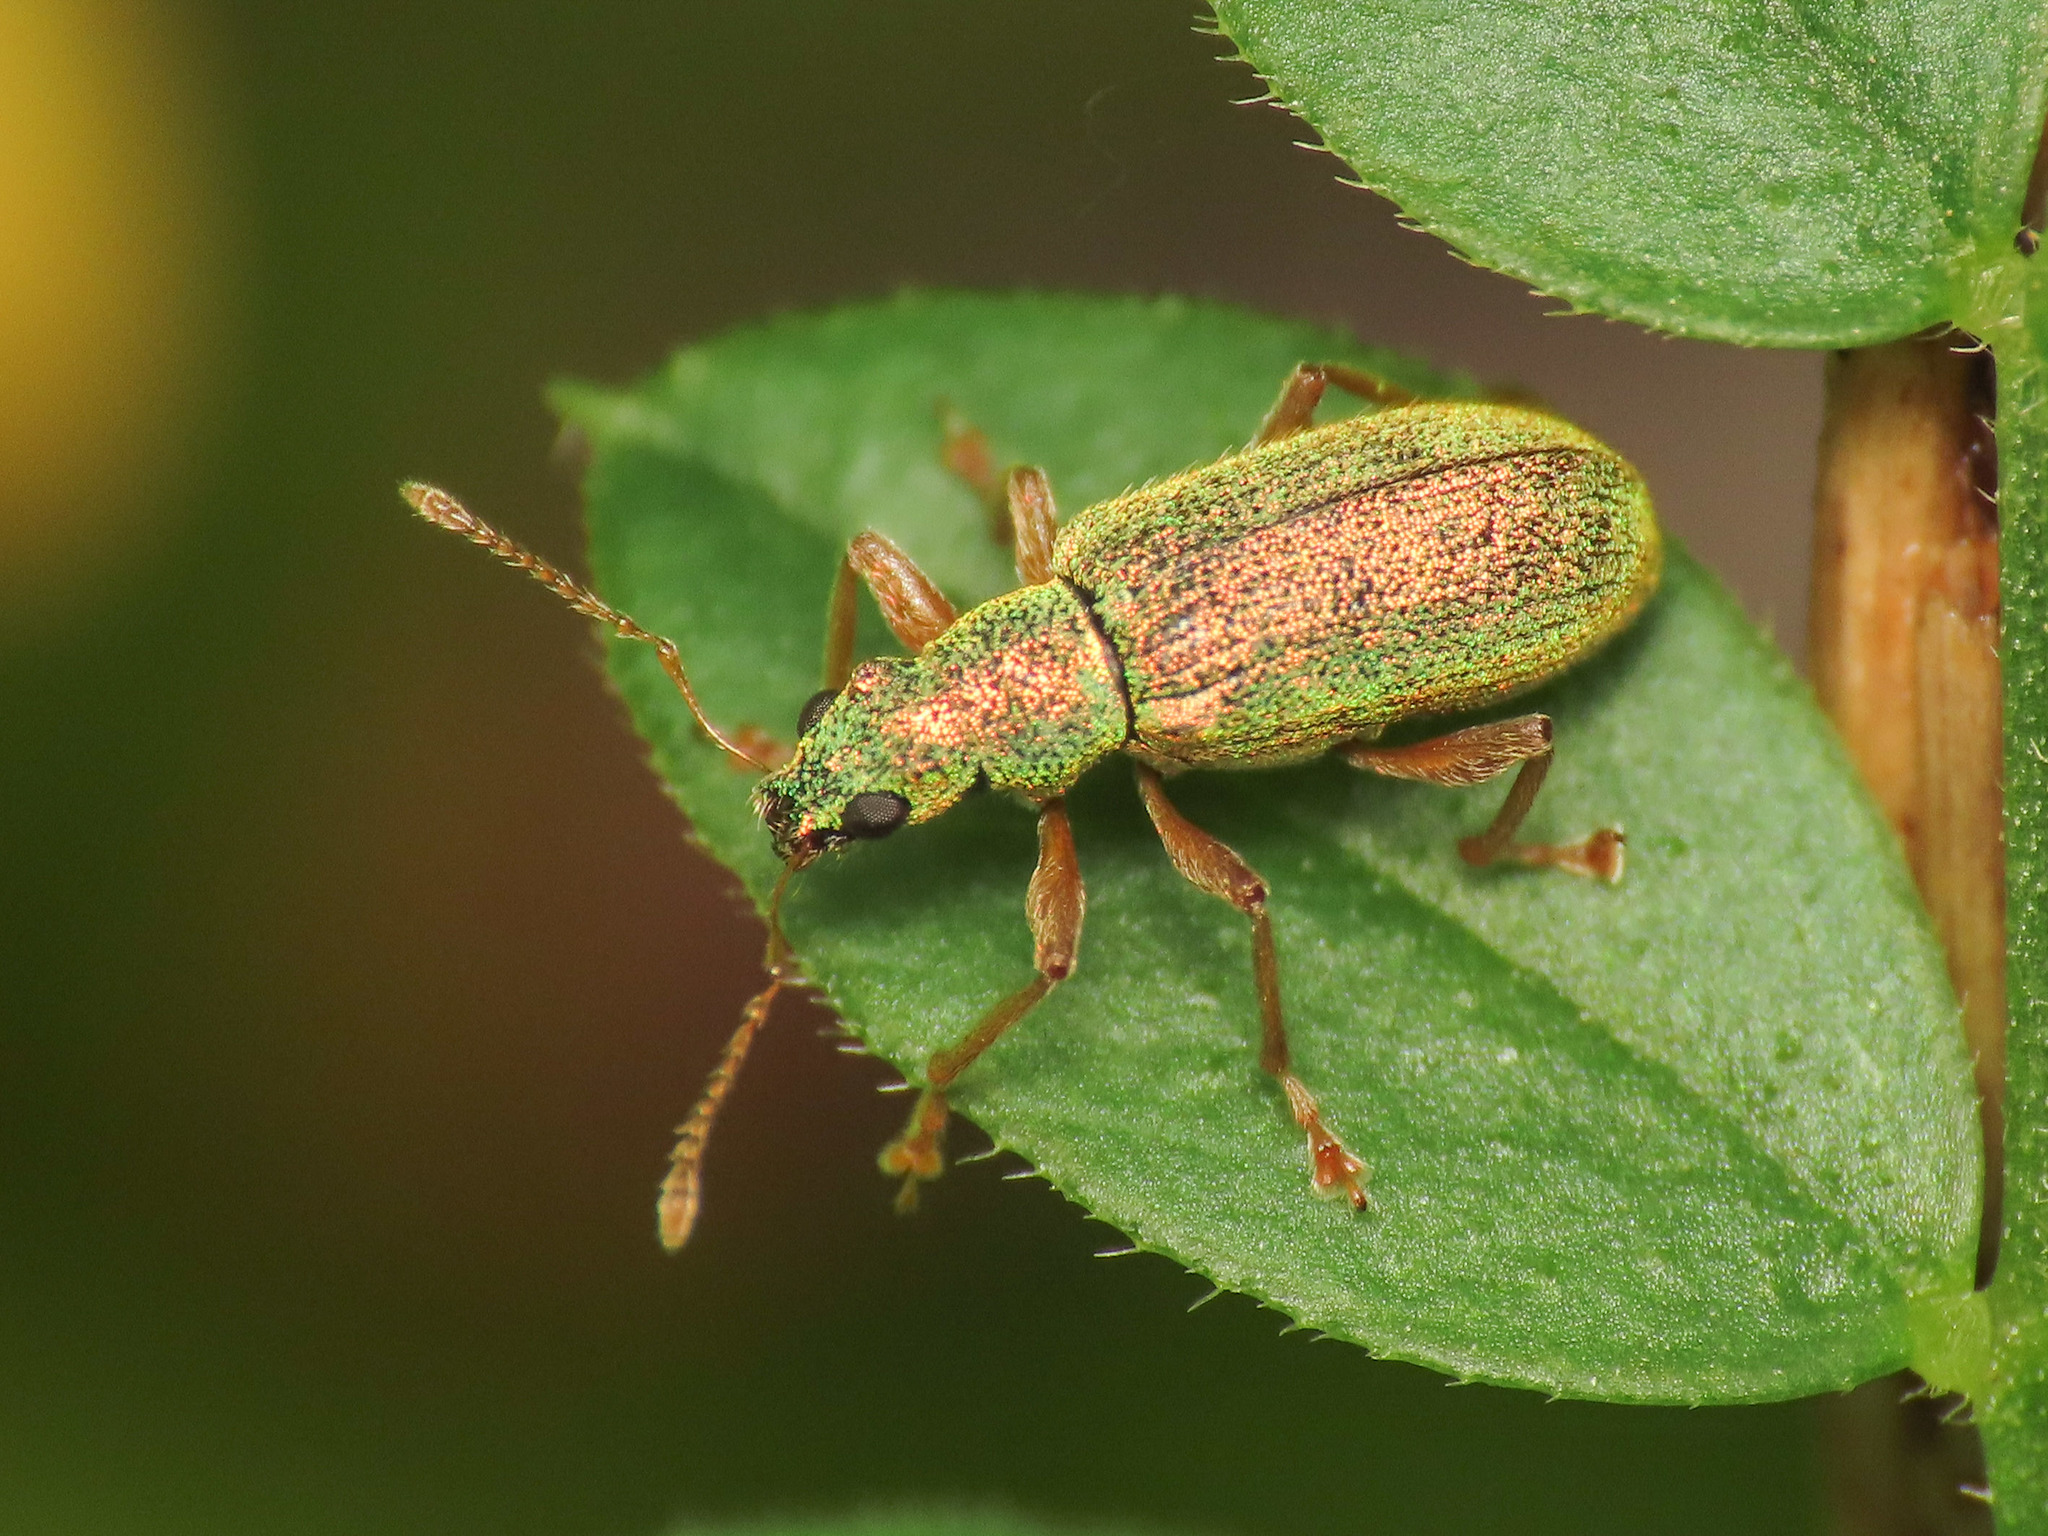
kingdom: Animalia
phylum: Arthropoda
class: Insecta
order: Coleoptera
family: Curculionidae
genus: Polydrusus
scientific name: Polydrusus pterygomalis
